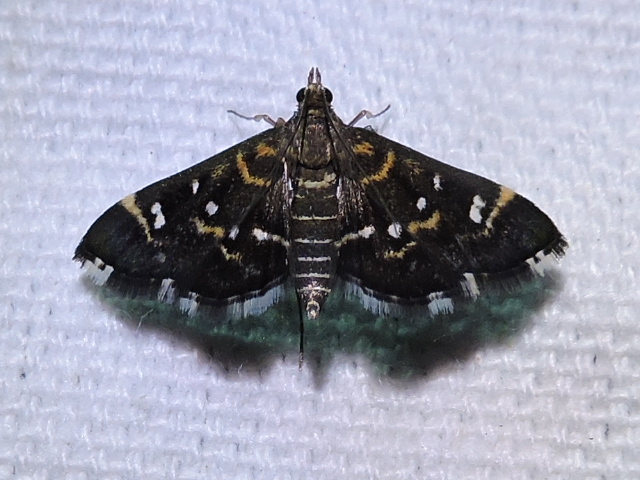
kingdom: Animalia
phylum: Arthropoda
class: Insecta
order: Lepidoptera
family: Crambidae
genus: Diathrausta
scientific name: Diathrausta harlequinalis
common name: Harlequin webworm moth
